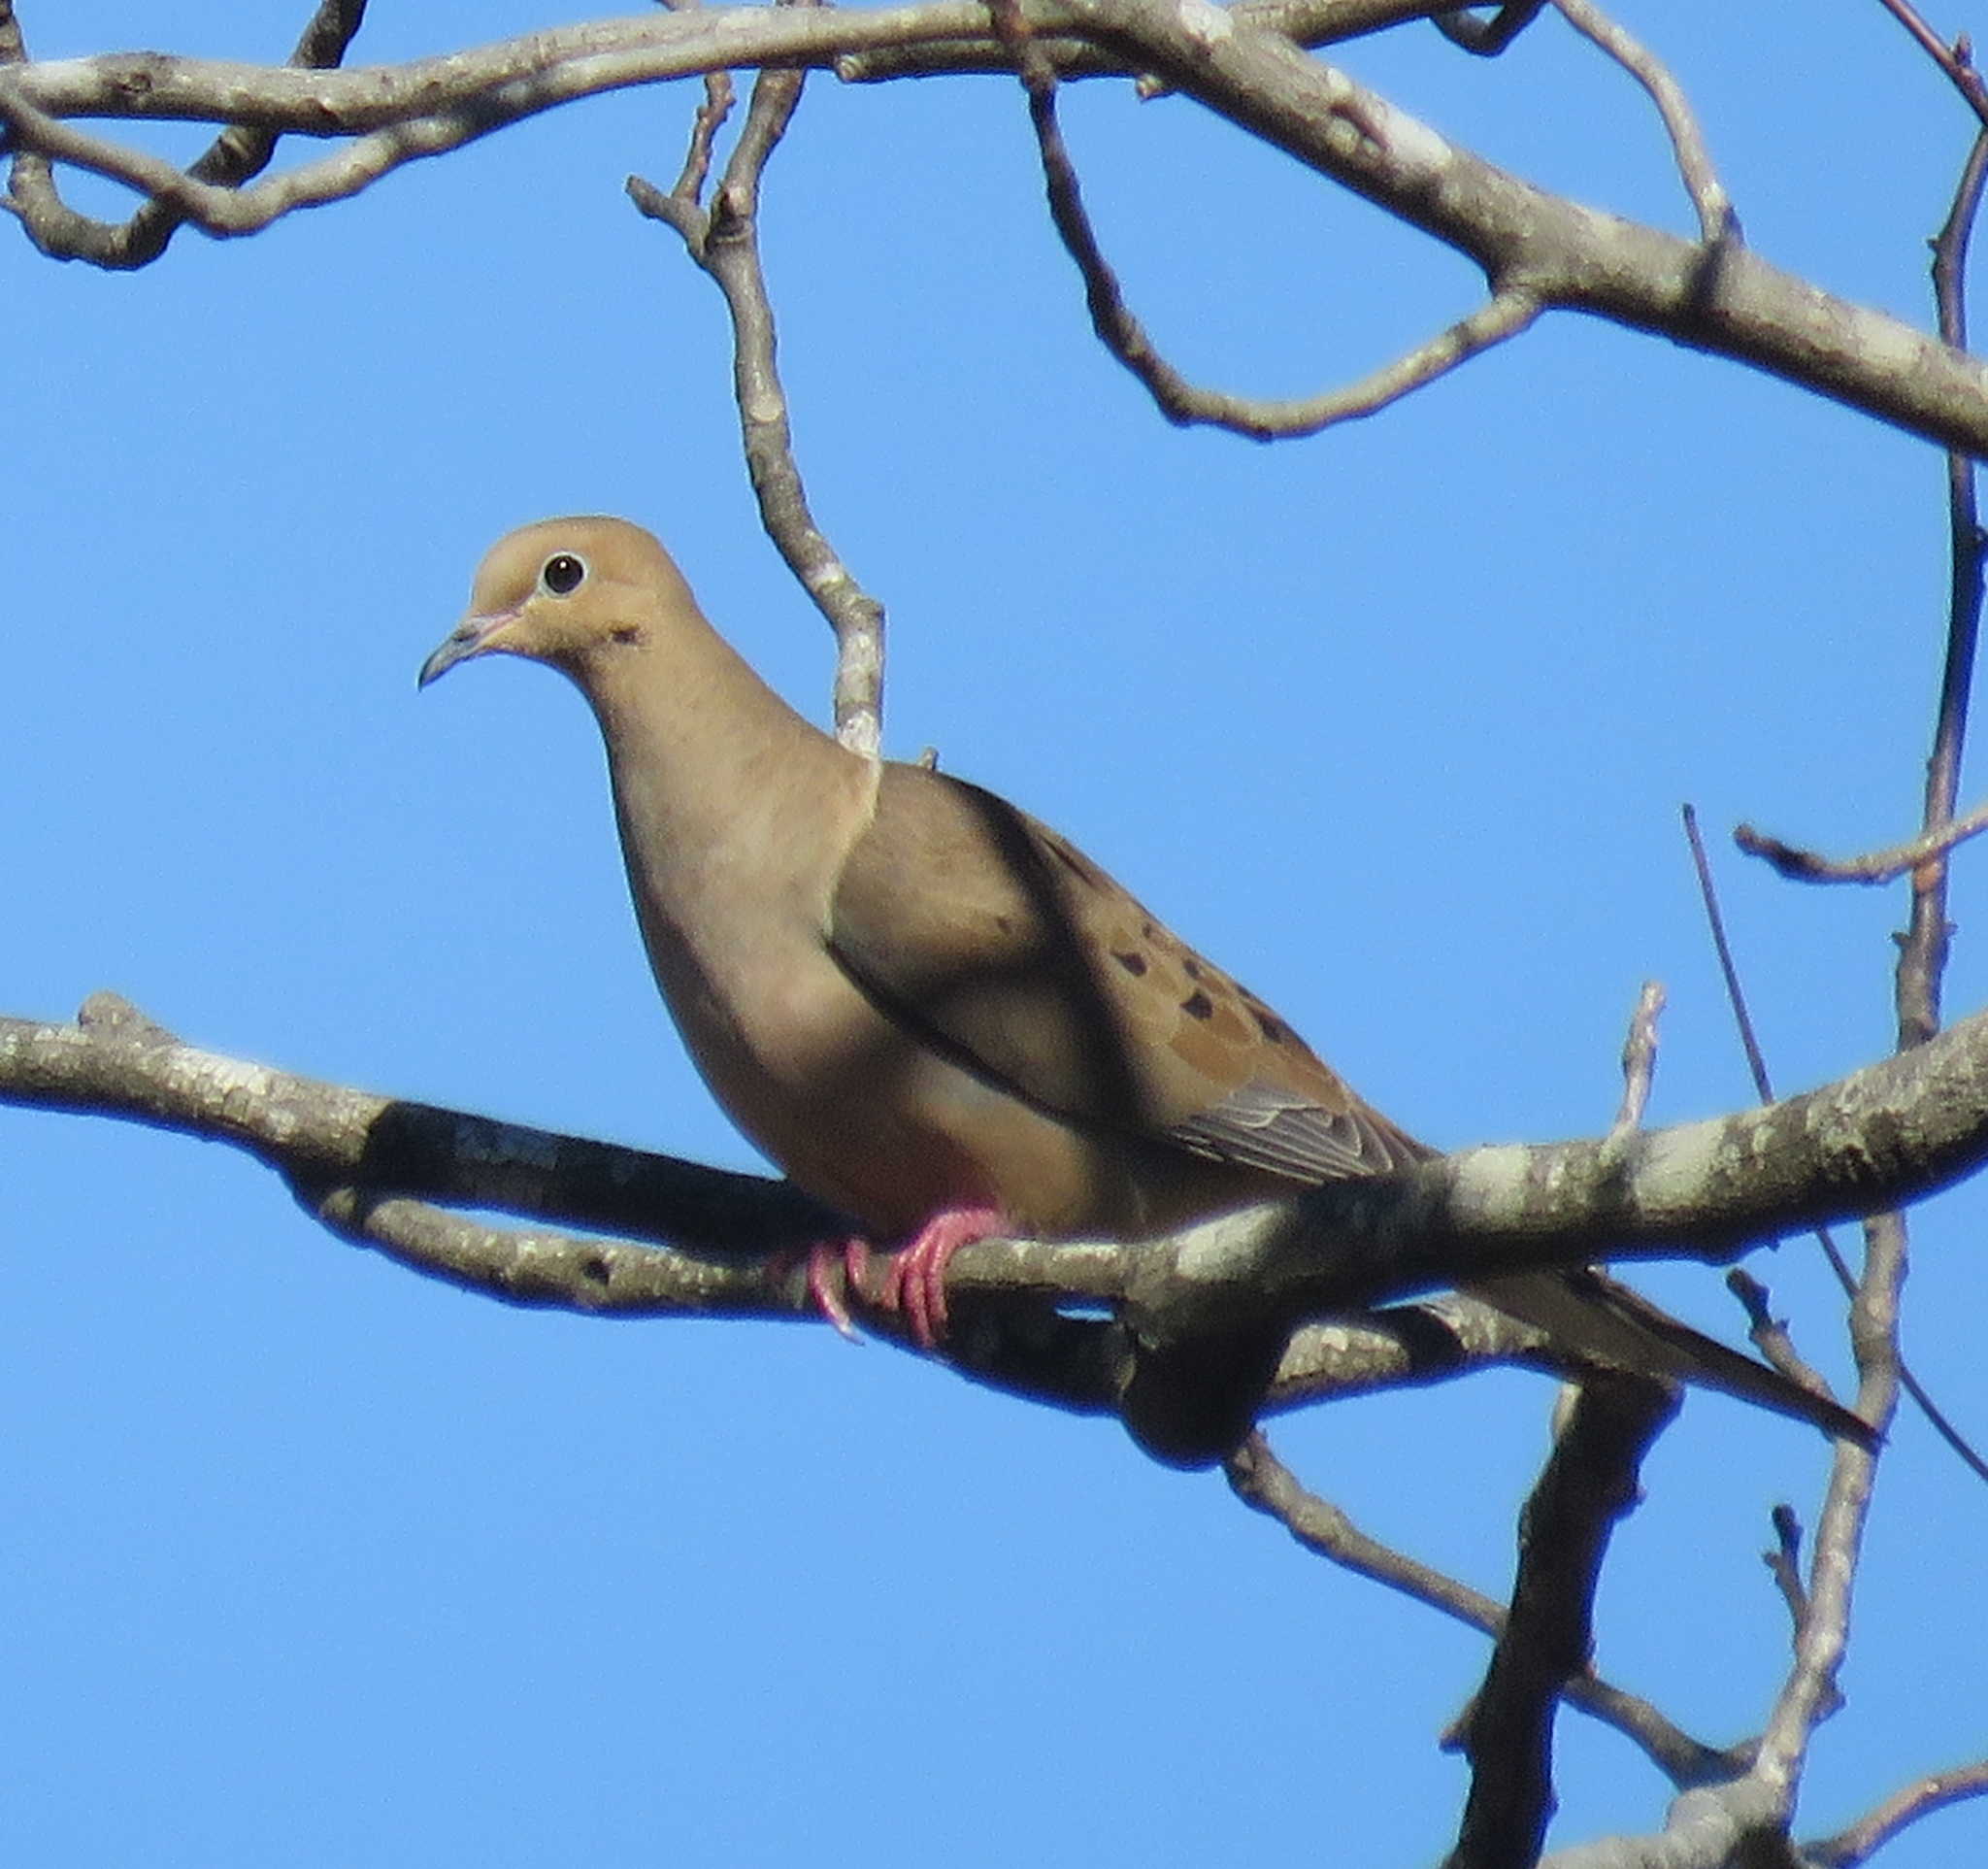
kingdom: Animalia
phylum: Chordata
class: Aves
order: Columbiformes
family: Columbidae
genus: Zenaida
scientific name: Zenaida macroura
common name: Mourning dove
